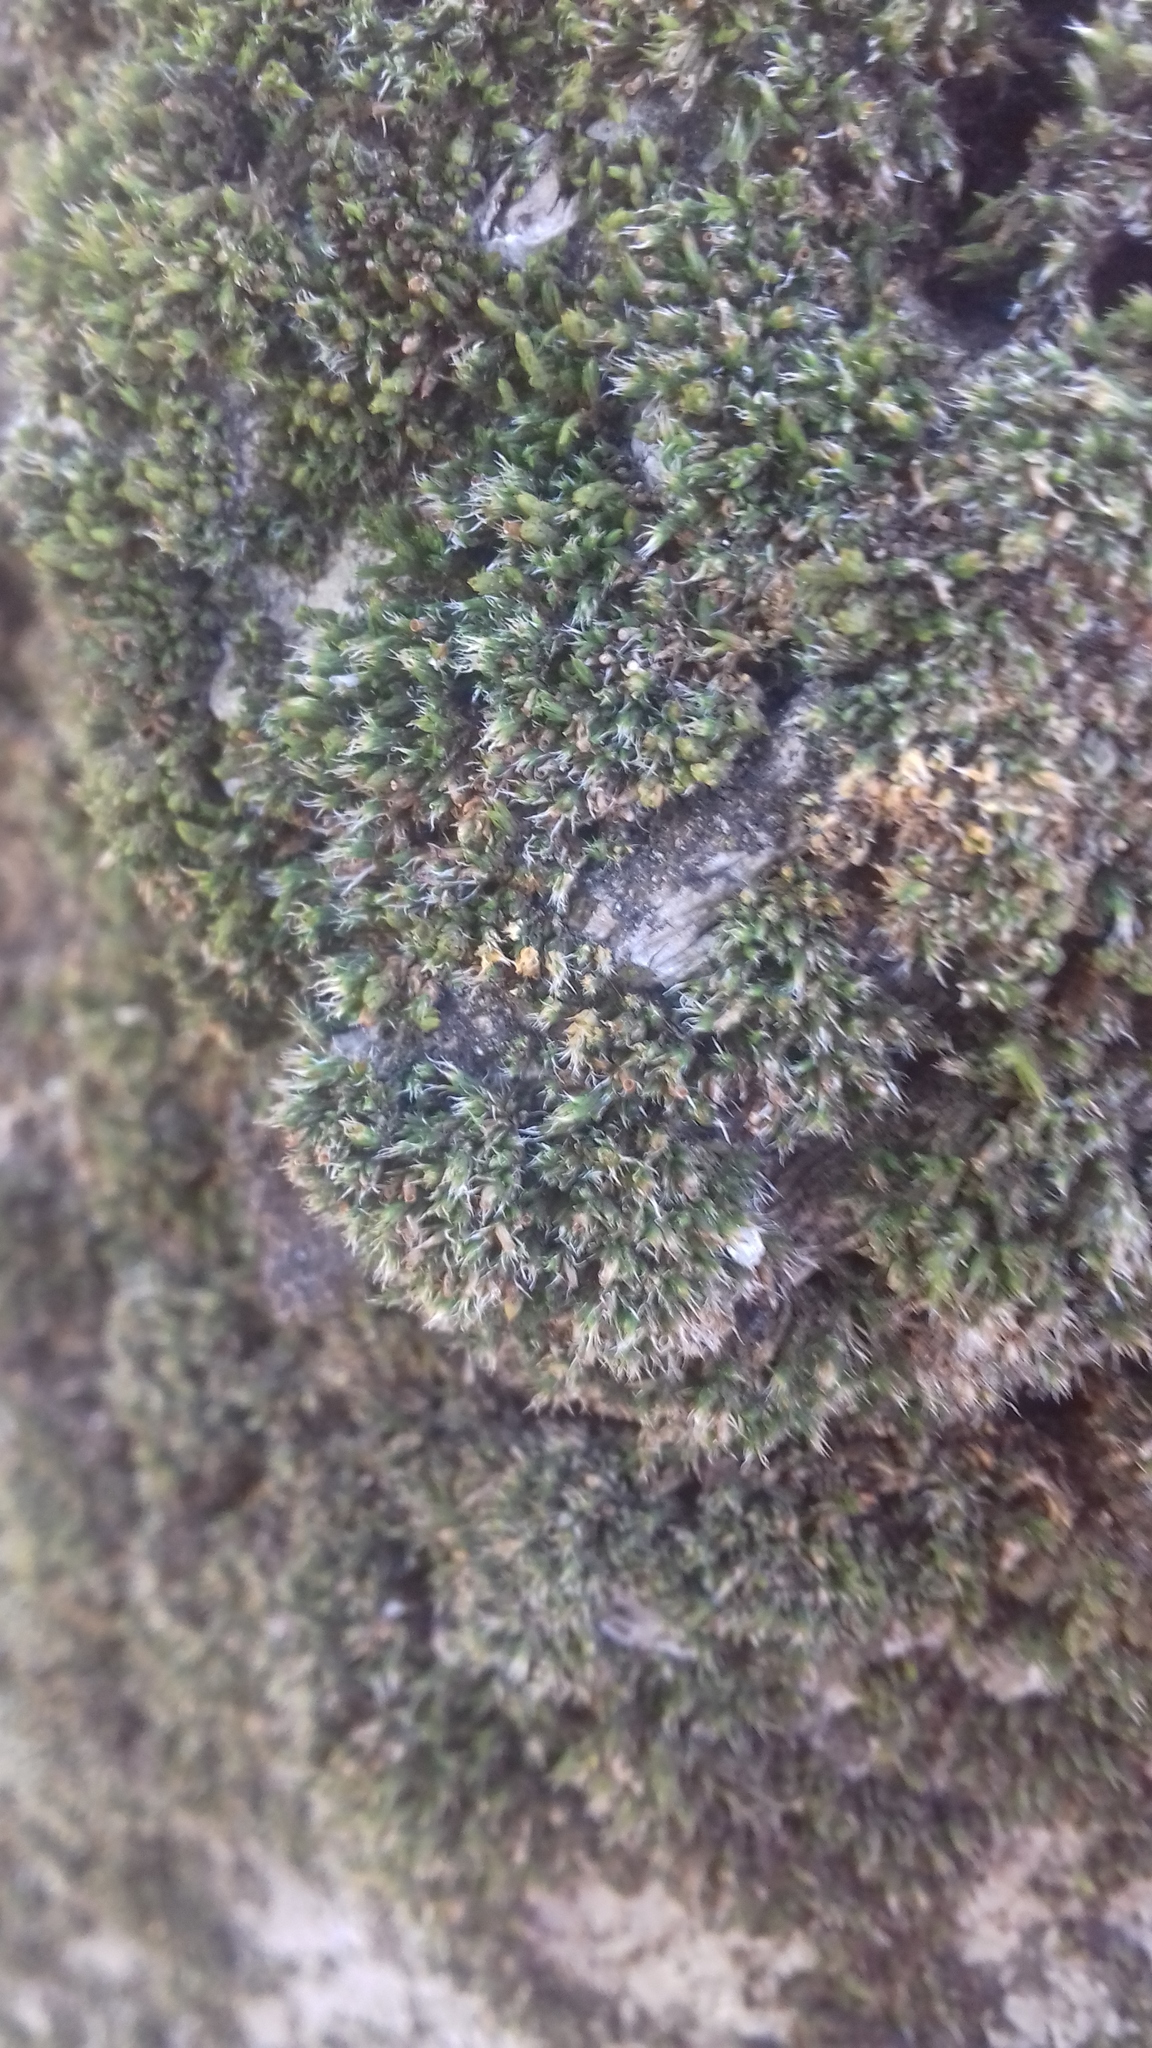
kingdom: Plantae
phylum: Bryophyta
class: Bryopsida
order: Orthotrichales
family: Orthotrichaceae
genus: Orthotrichum
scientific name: Orthotrichum diaphanum
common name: White-tipped bristle-moss
